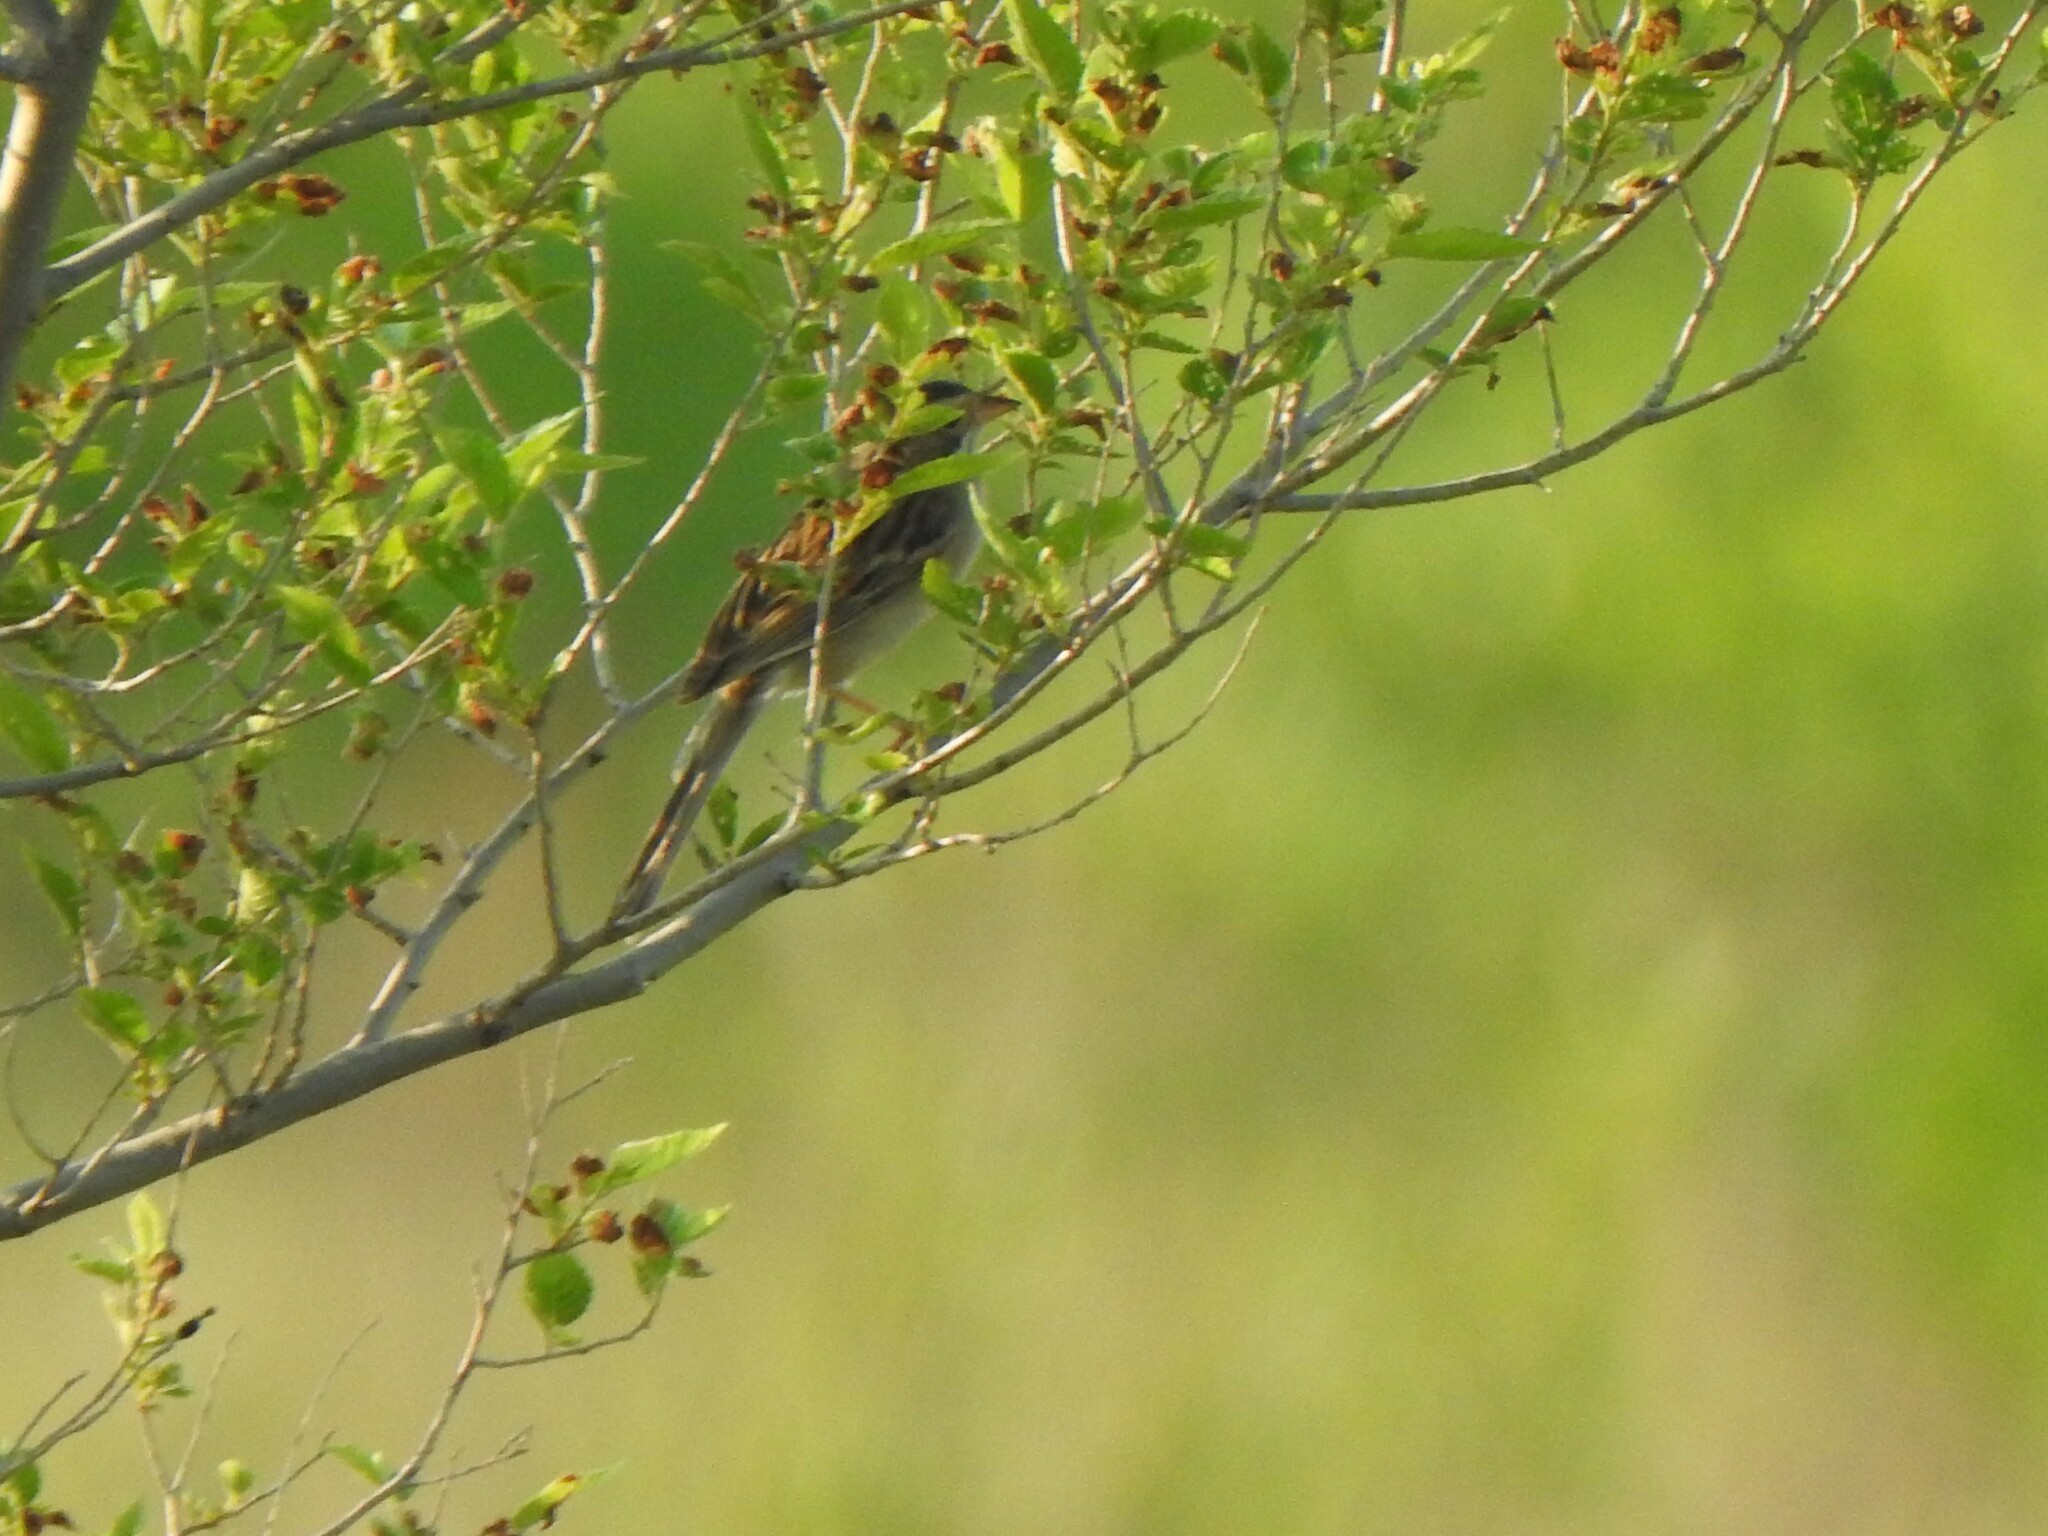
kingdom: Animalia
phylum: Chordata
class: Aves
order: Passeriformes
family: Passerellidae
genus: Spizella
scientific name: Spizella pallida
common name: Clay-colored sparrow
